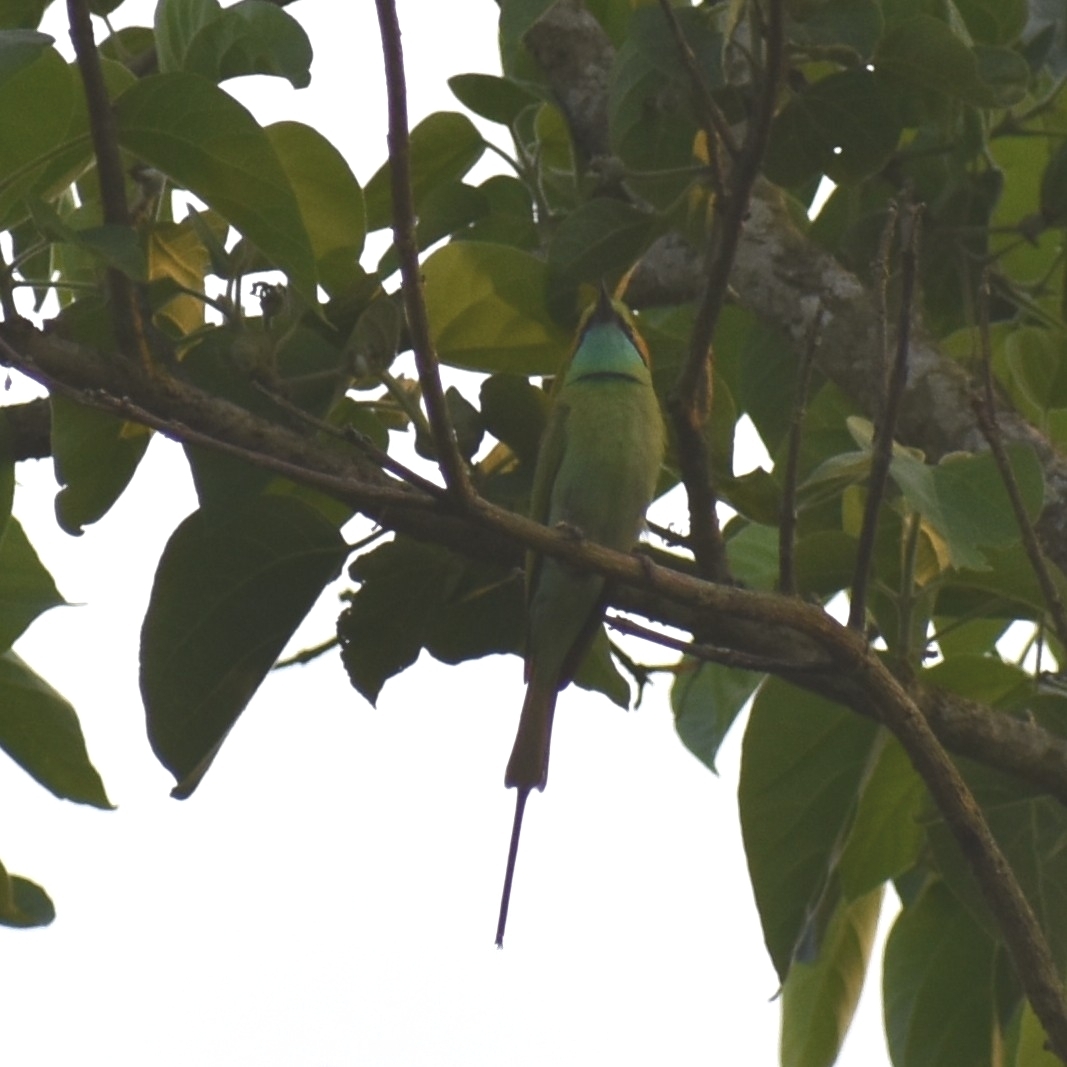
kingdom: Animalia
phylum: Chordata
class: Aves
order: Coraciiformes
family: Meropidae
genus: Merops
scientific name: Merops orientalis
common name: Green bee-eater
